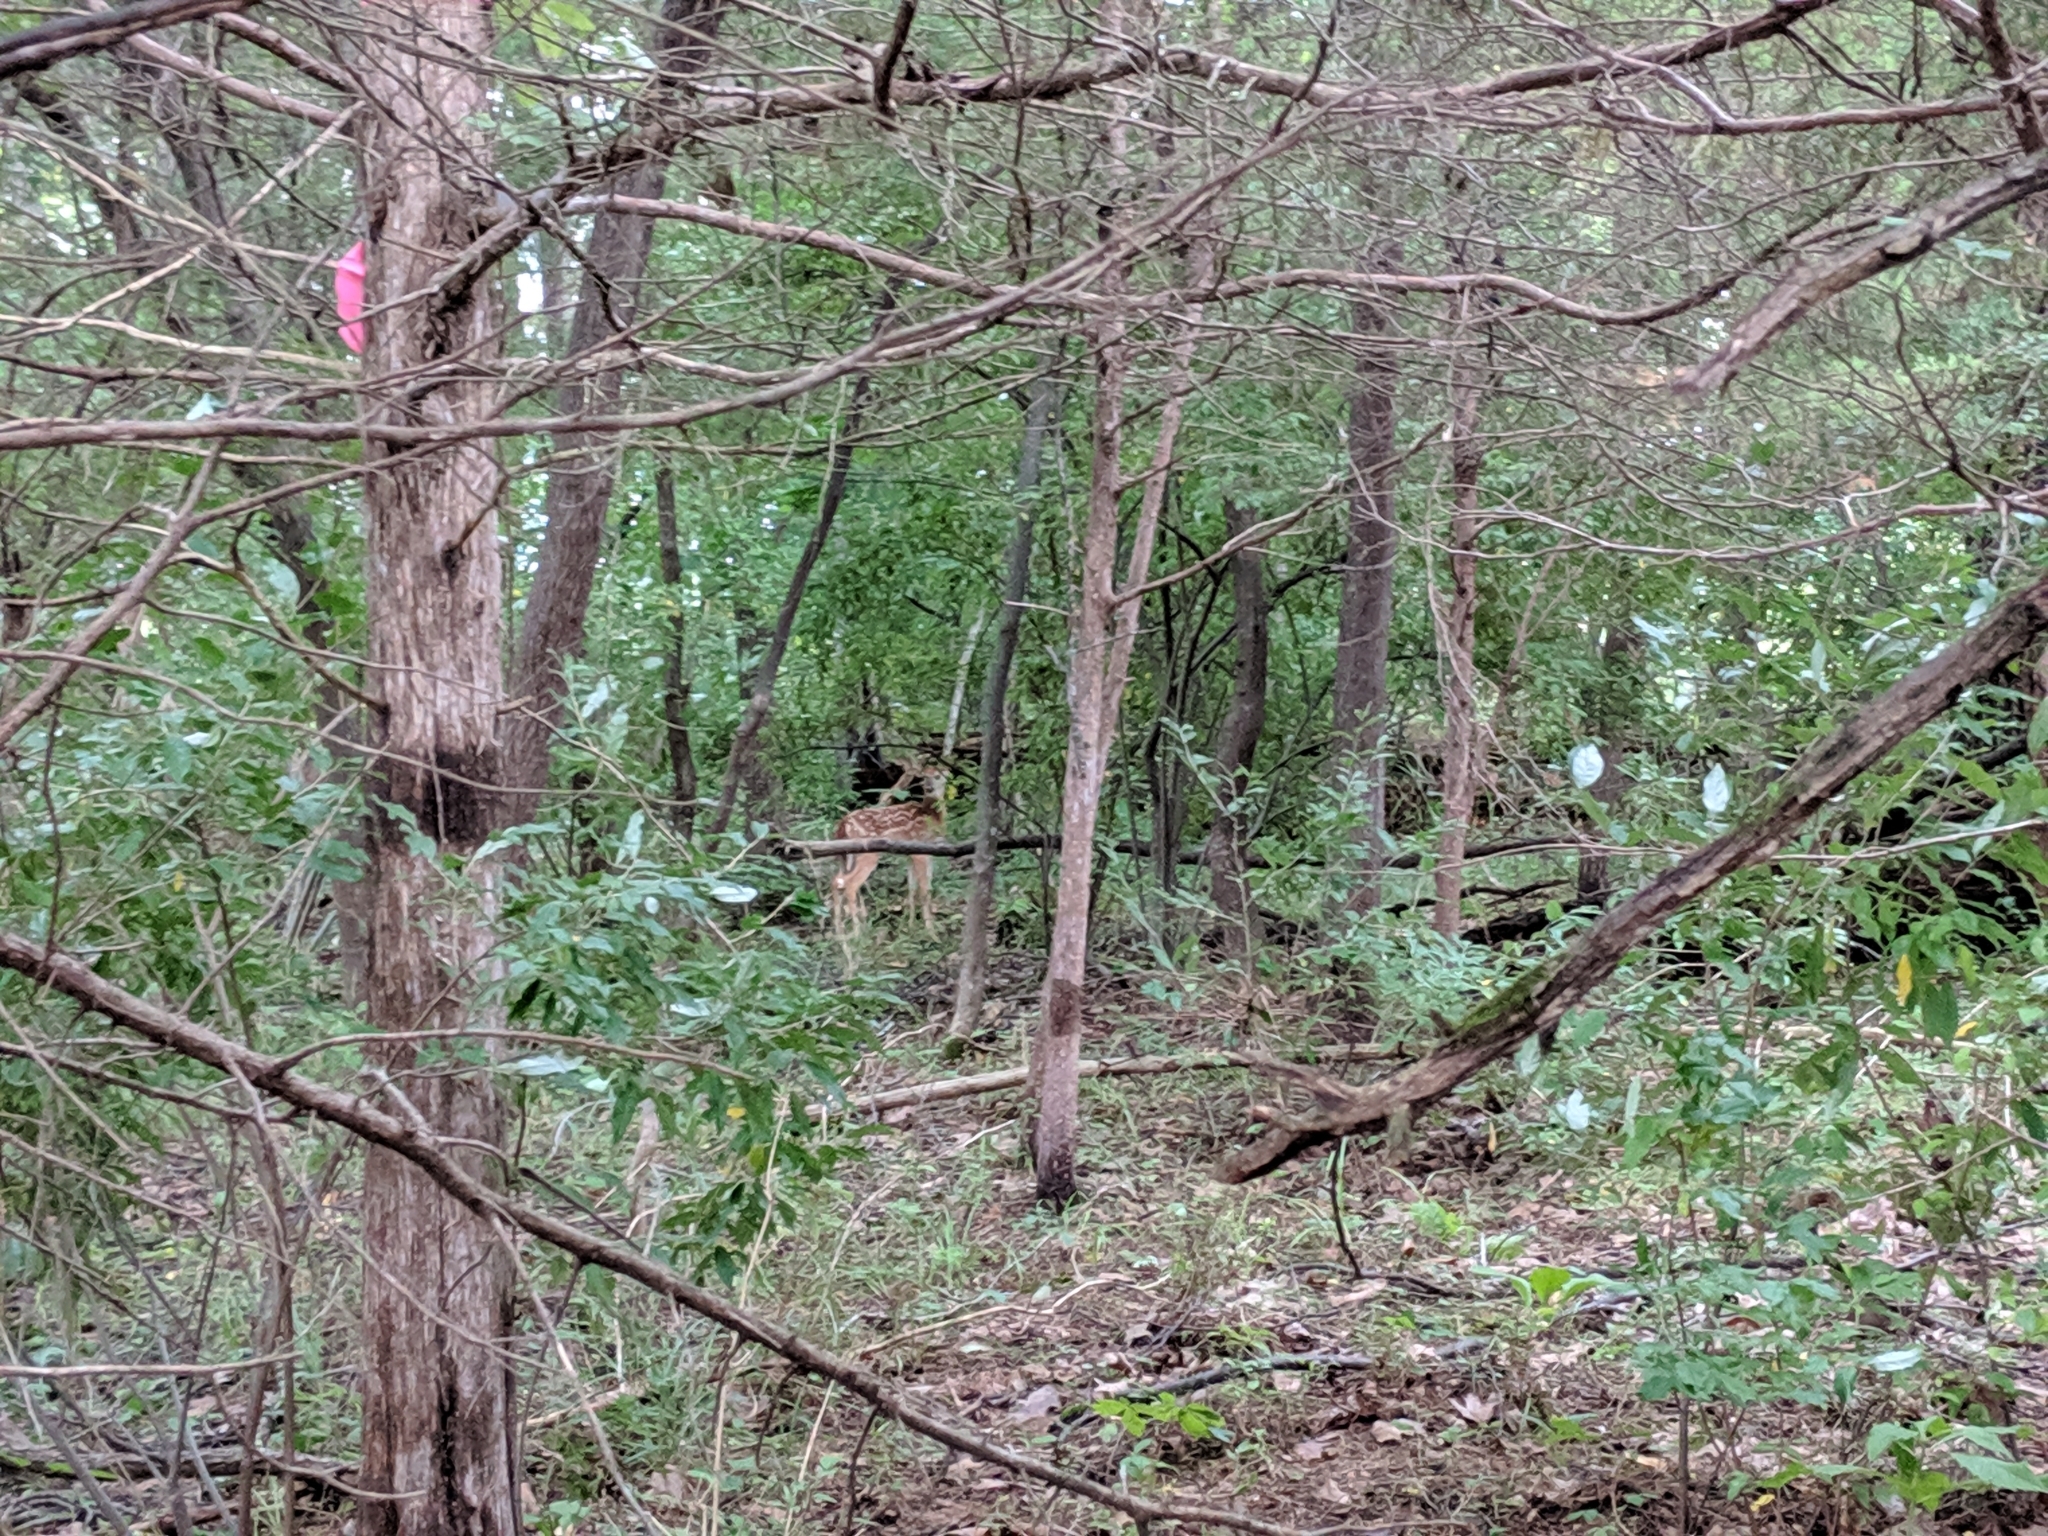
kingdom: Animalia
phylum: Chordata
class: Mammalia
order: Artiodactyla
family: Cervidae
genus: Odocoileus
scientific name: Odocoileus virginianus
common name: White-tailed deer
